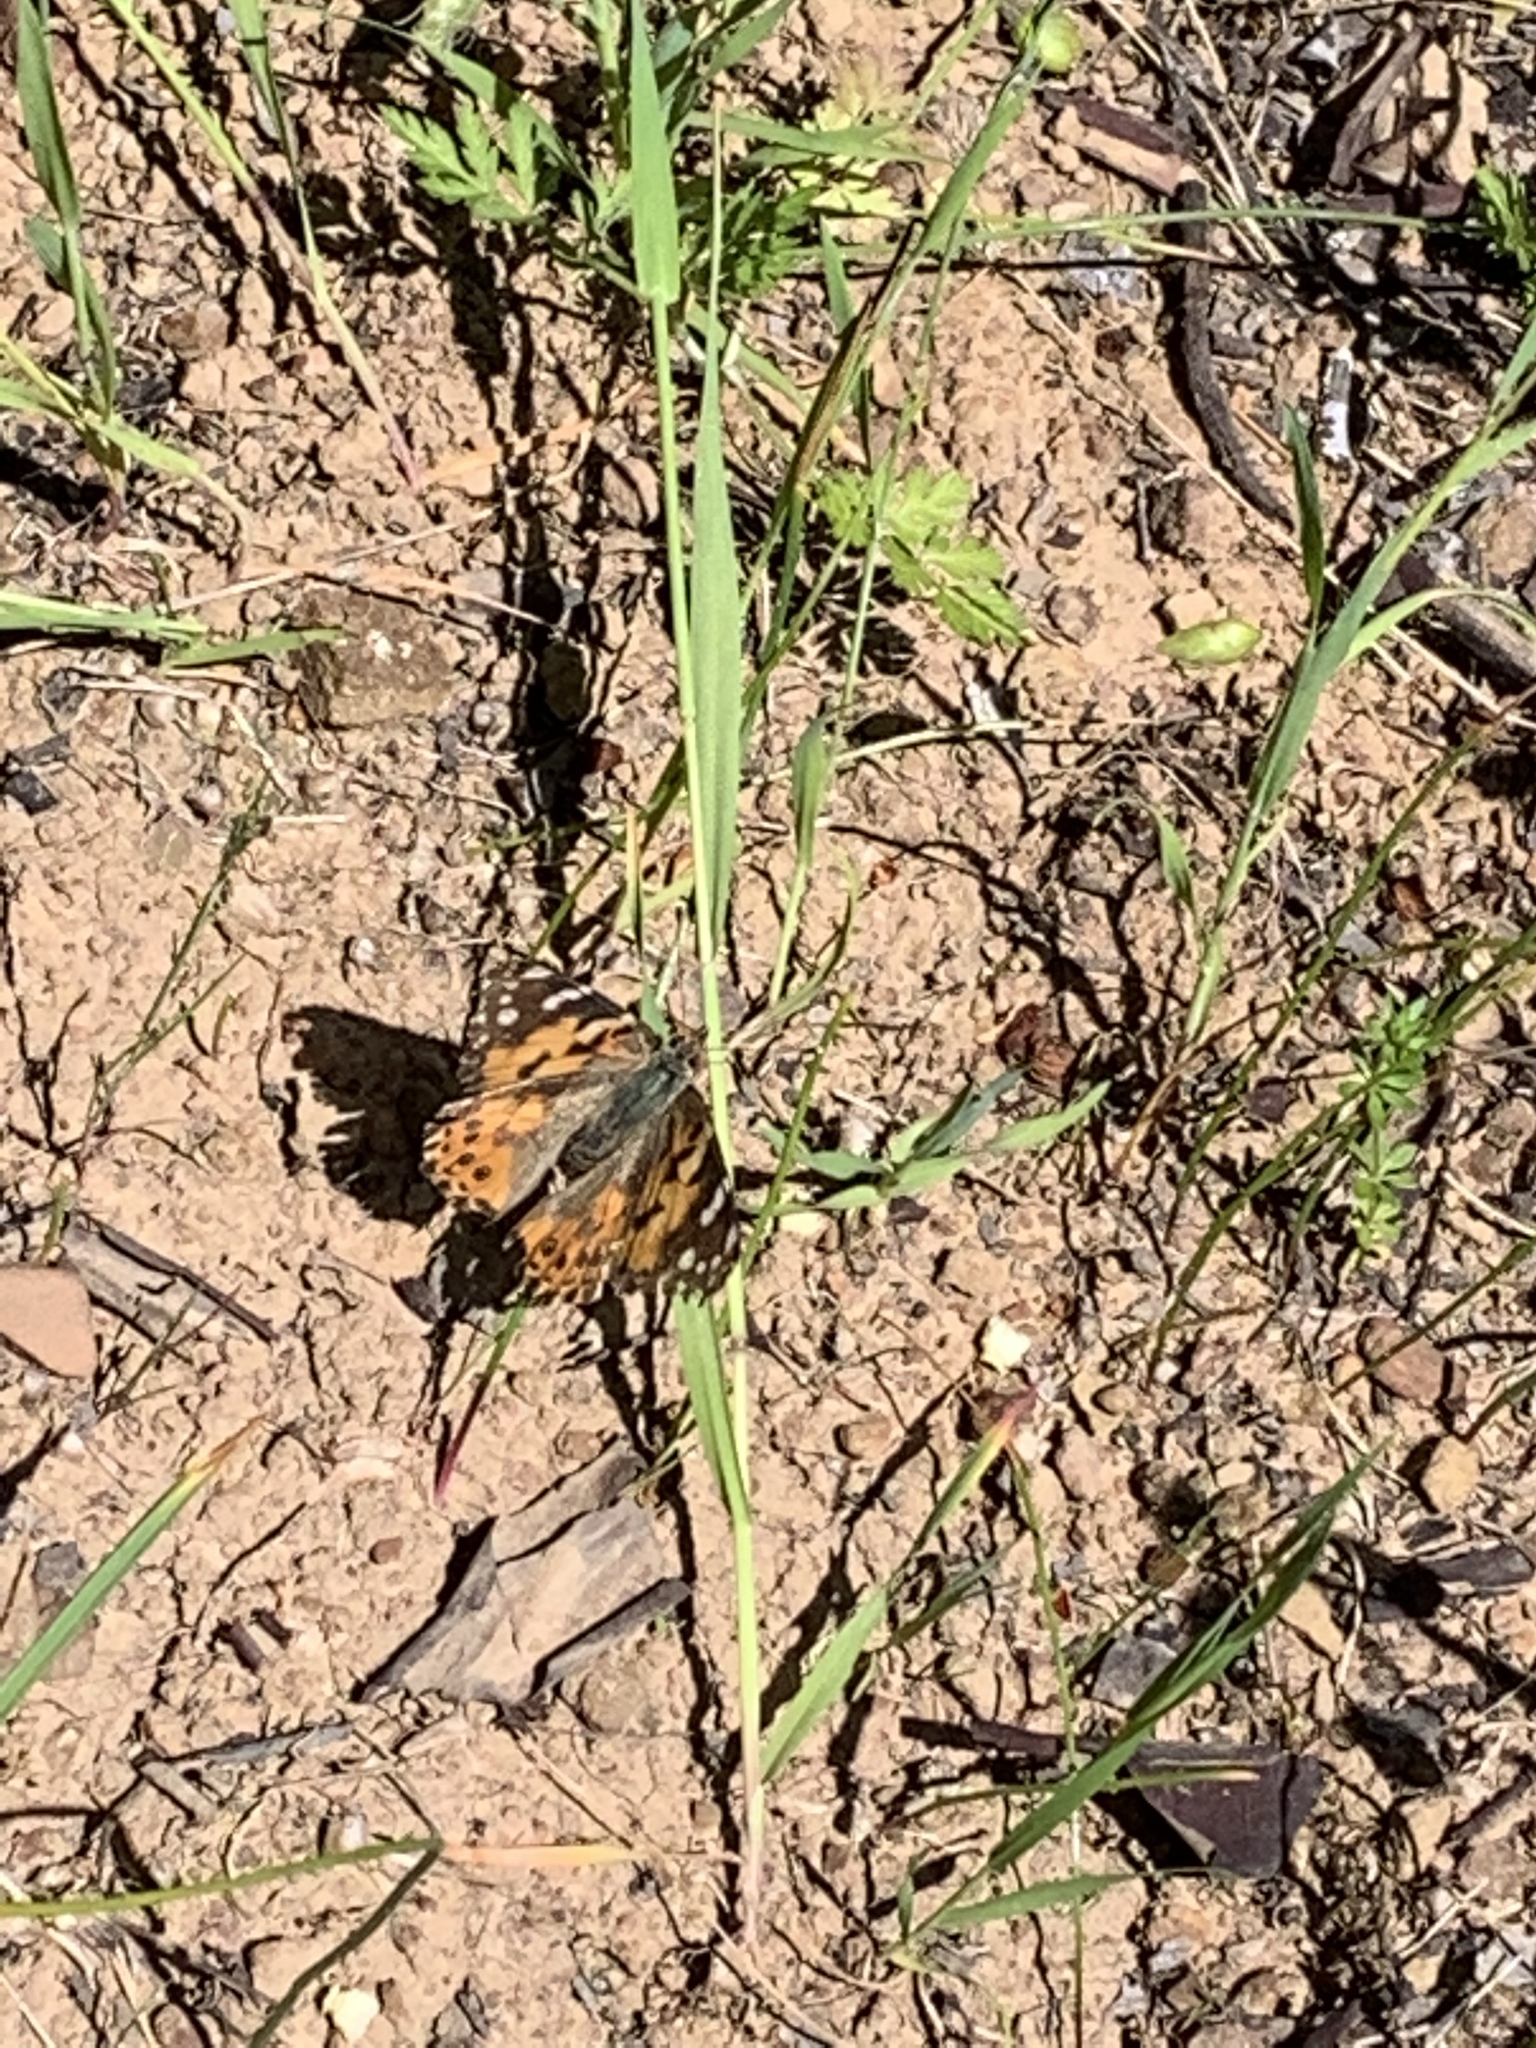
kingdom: Animalia
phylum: Arthropoda
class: Insecta
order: Lepidoptera
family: Nymphalidae
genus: Vanessa
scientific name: Vanessa cardui
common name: Painted lady
